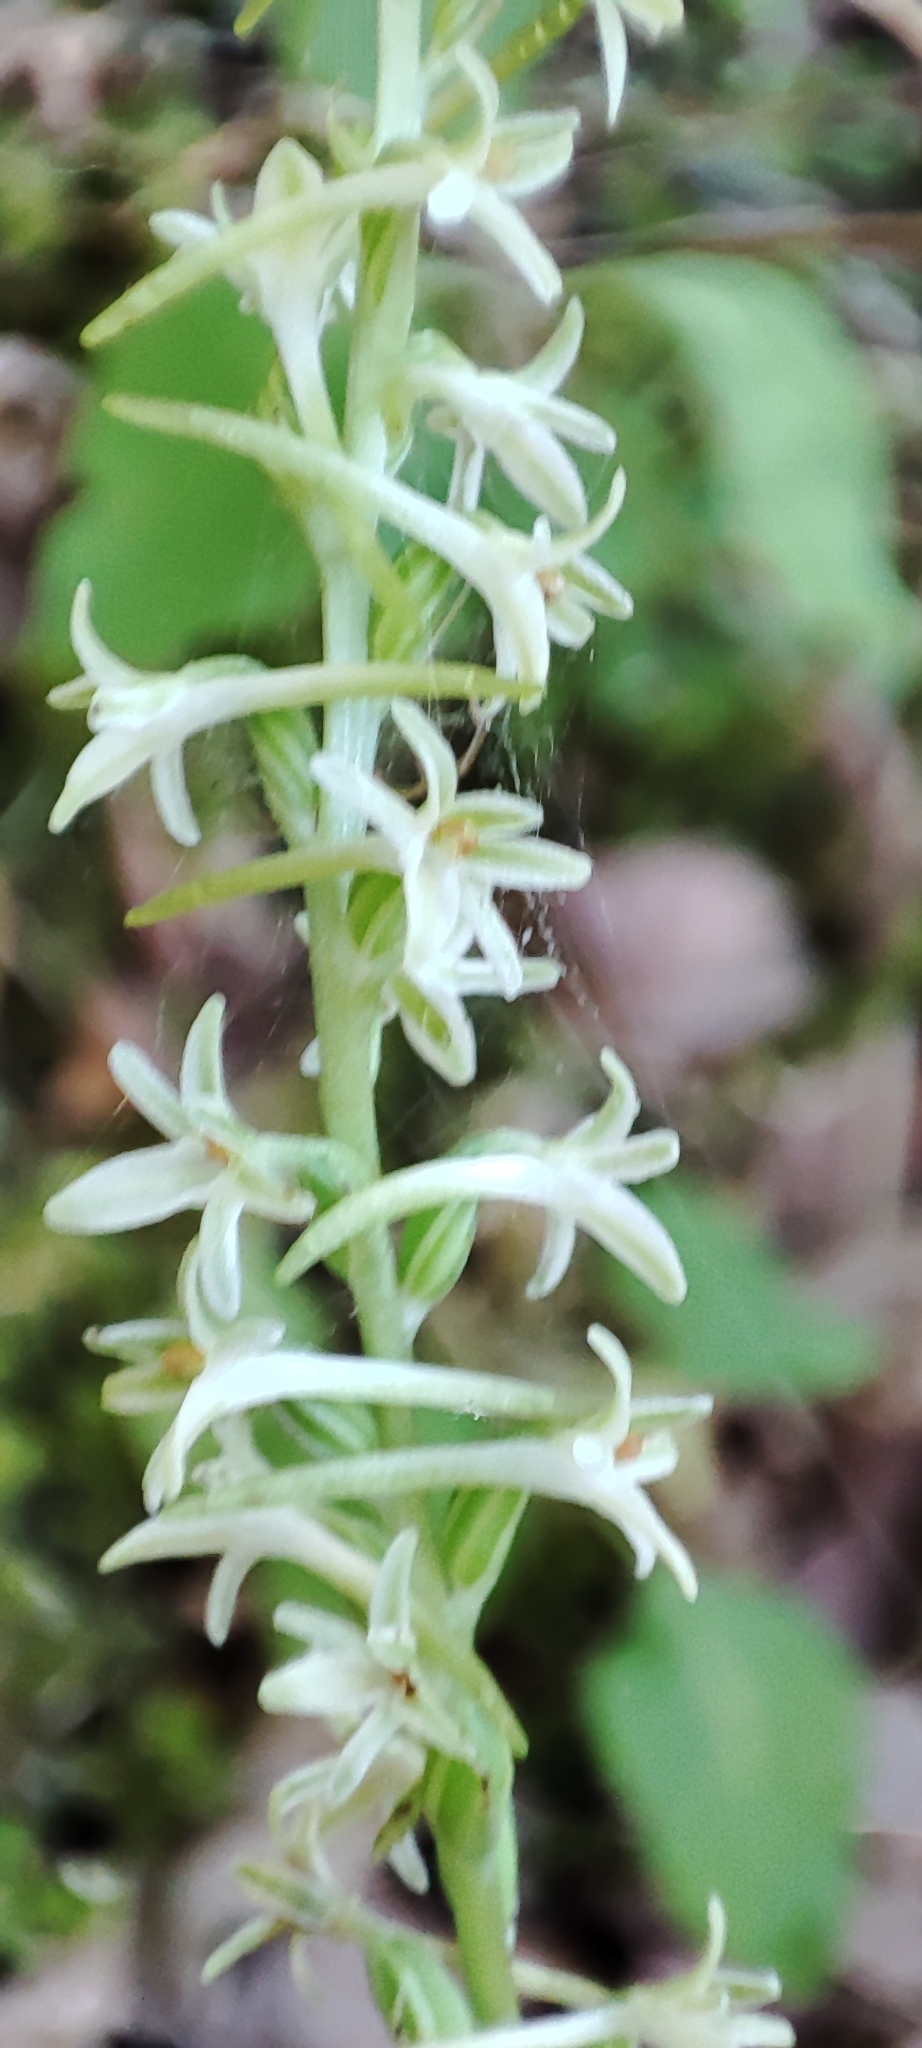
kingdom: Plantae
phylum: Tracheophyta
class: Liliopsida
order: Asparagales
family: Orchidaceae
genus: Platanthera
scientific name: Platanthera transversa
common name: Royal rein orchid
